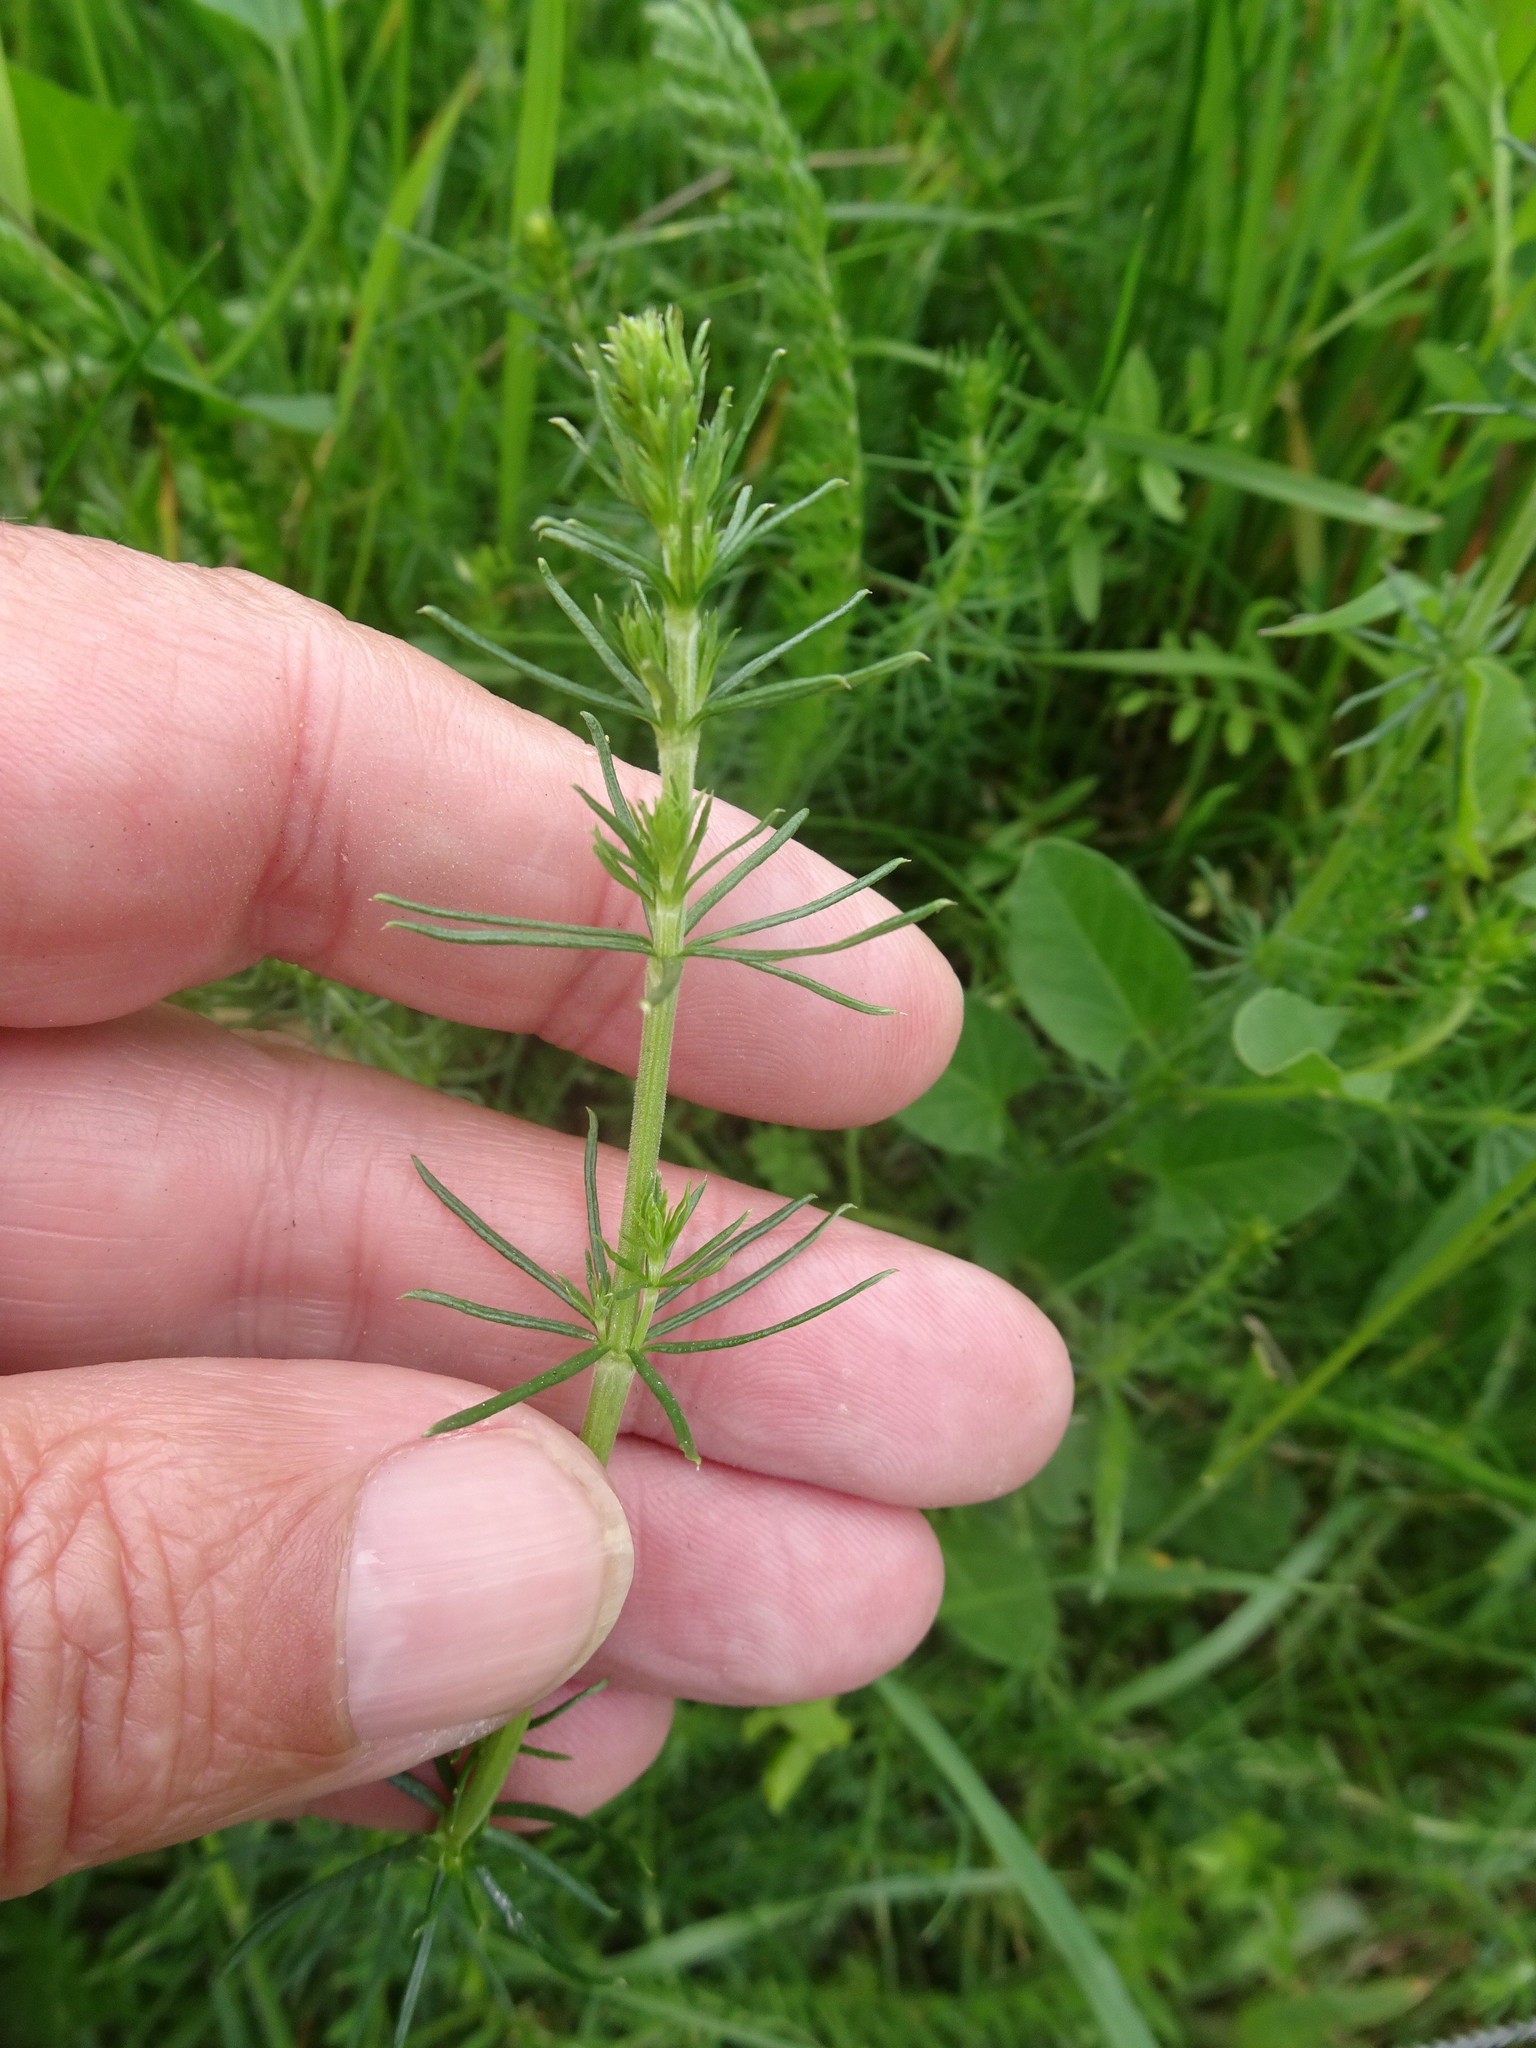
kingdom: Plantae
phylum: Tracheophyta
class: Magnoliopsida
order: Gentianales
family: Rubiaceae
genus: Galium
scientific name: Galium verum
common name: Lady's bedstraw
